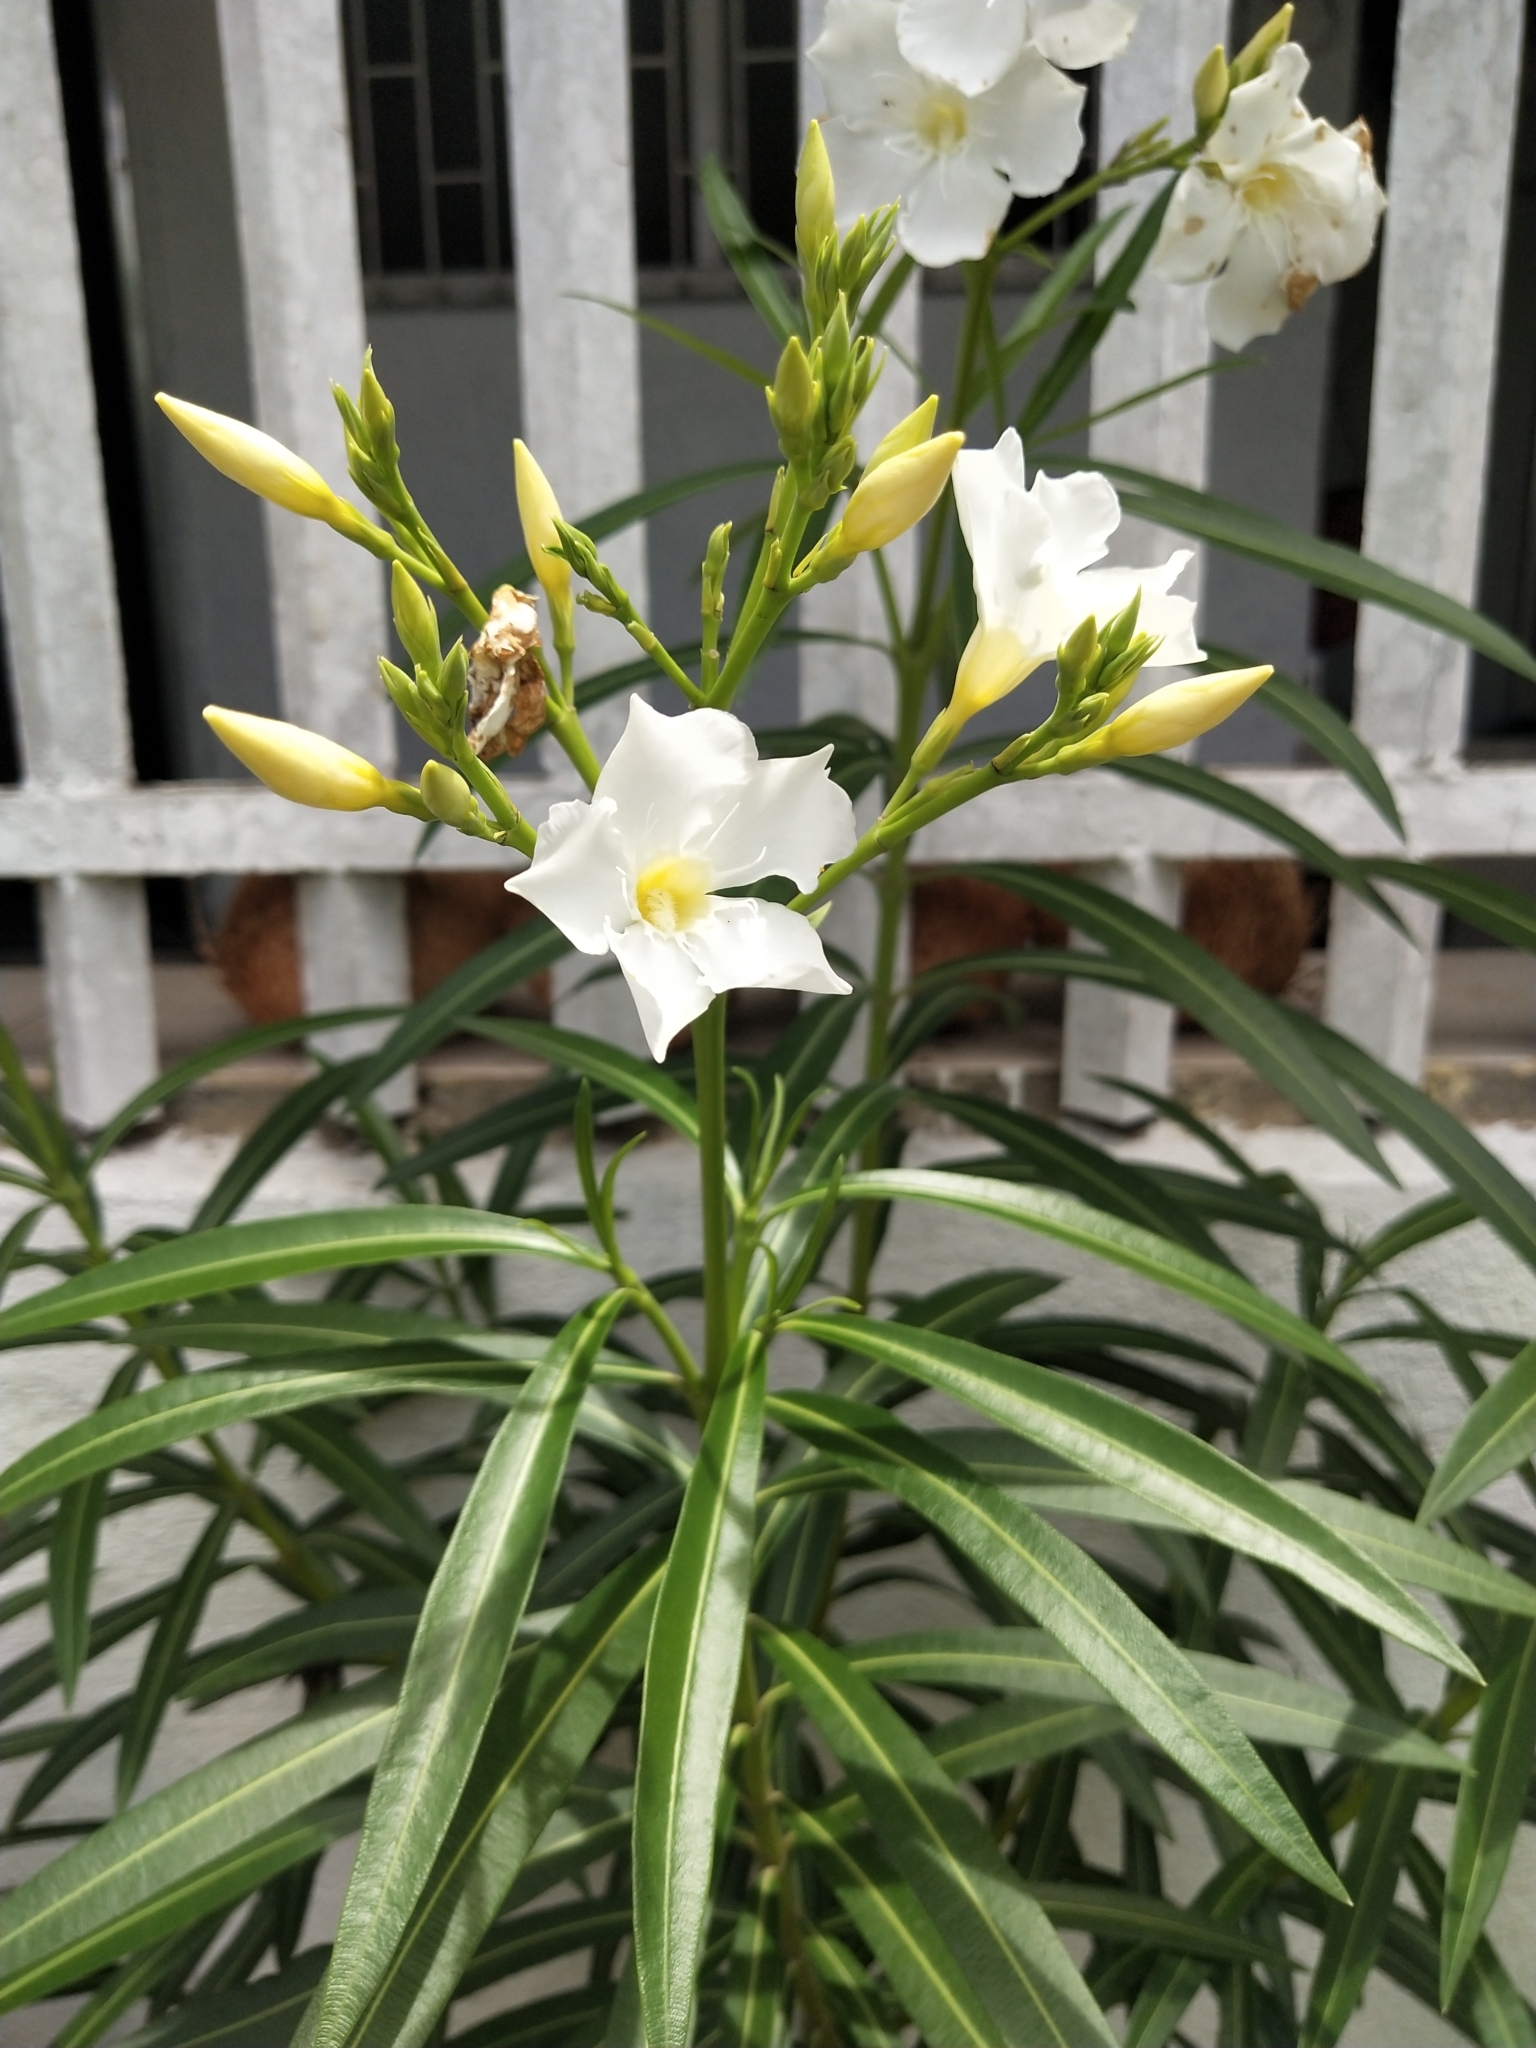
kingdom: Plantae
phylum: Tracheophyta
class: Magnoliopsida
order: Gentianales
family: Apocynaceae
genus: Nerium
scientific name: Nerium oleander
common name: Oleander
